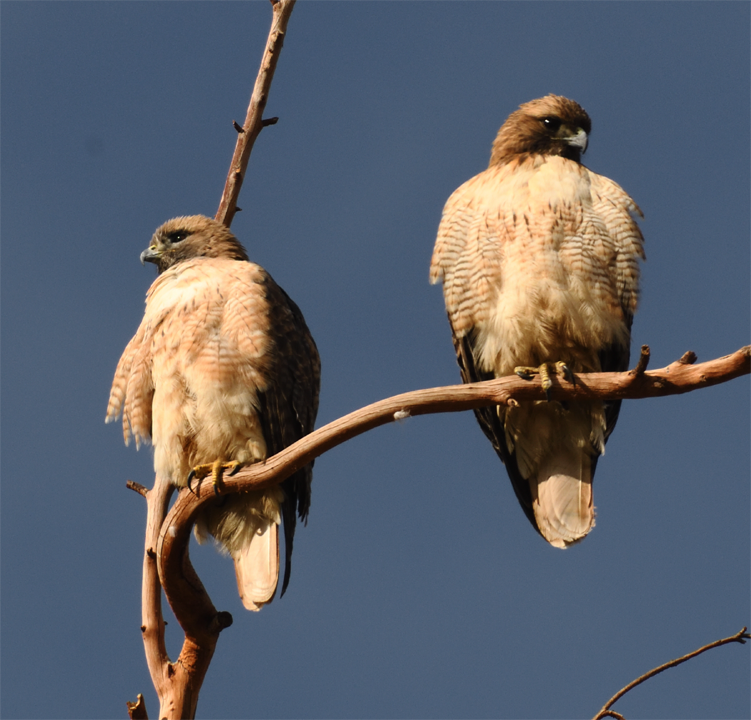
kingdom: Animalia
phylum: Chordata
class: Aves
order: Accipitriformes
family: Accipitridae
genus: Buteo
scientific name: Buteo jamaicensis
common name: Red-tailed hawk
